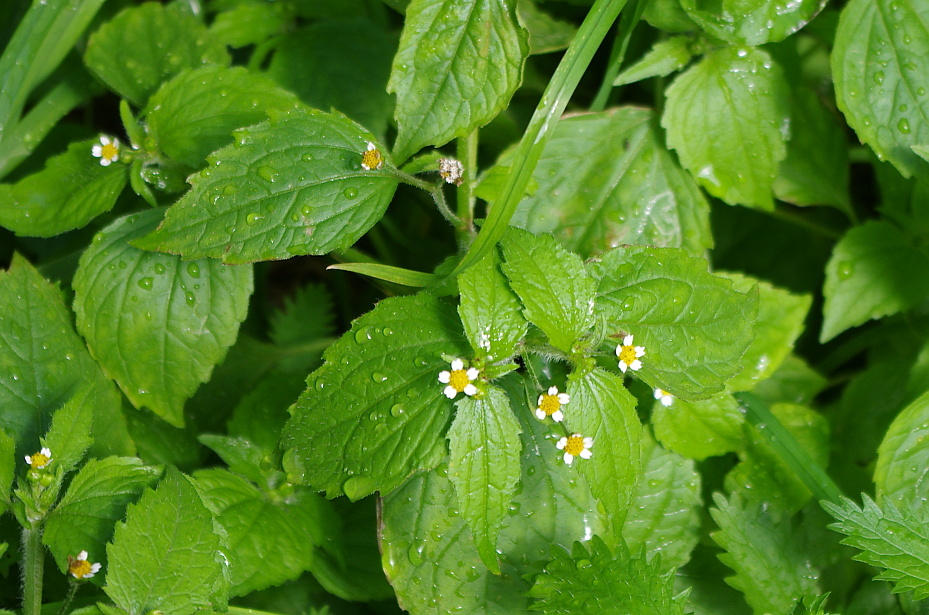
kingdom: Plantae
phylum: Tracheophyta
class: Magnoliopsida
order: Asterales
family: Asteraceae
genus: Galinsoga
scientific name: Galinsoga quadriradiata
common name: Shaggy soldier
